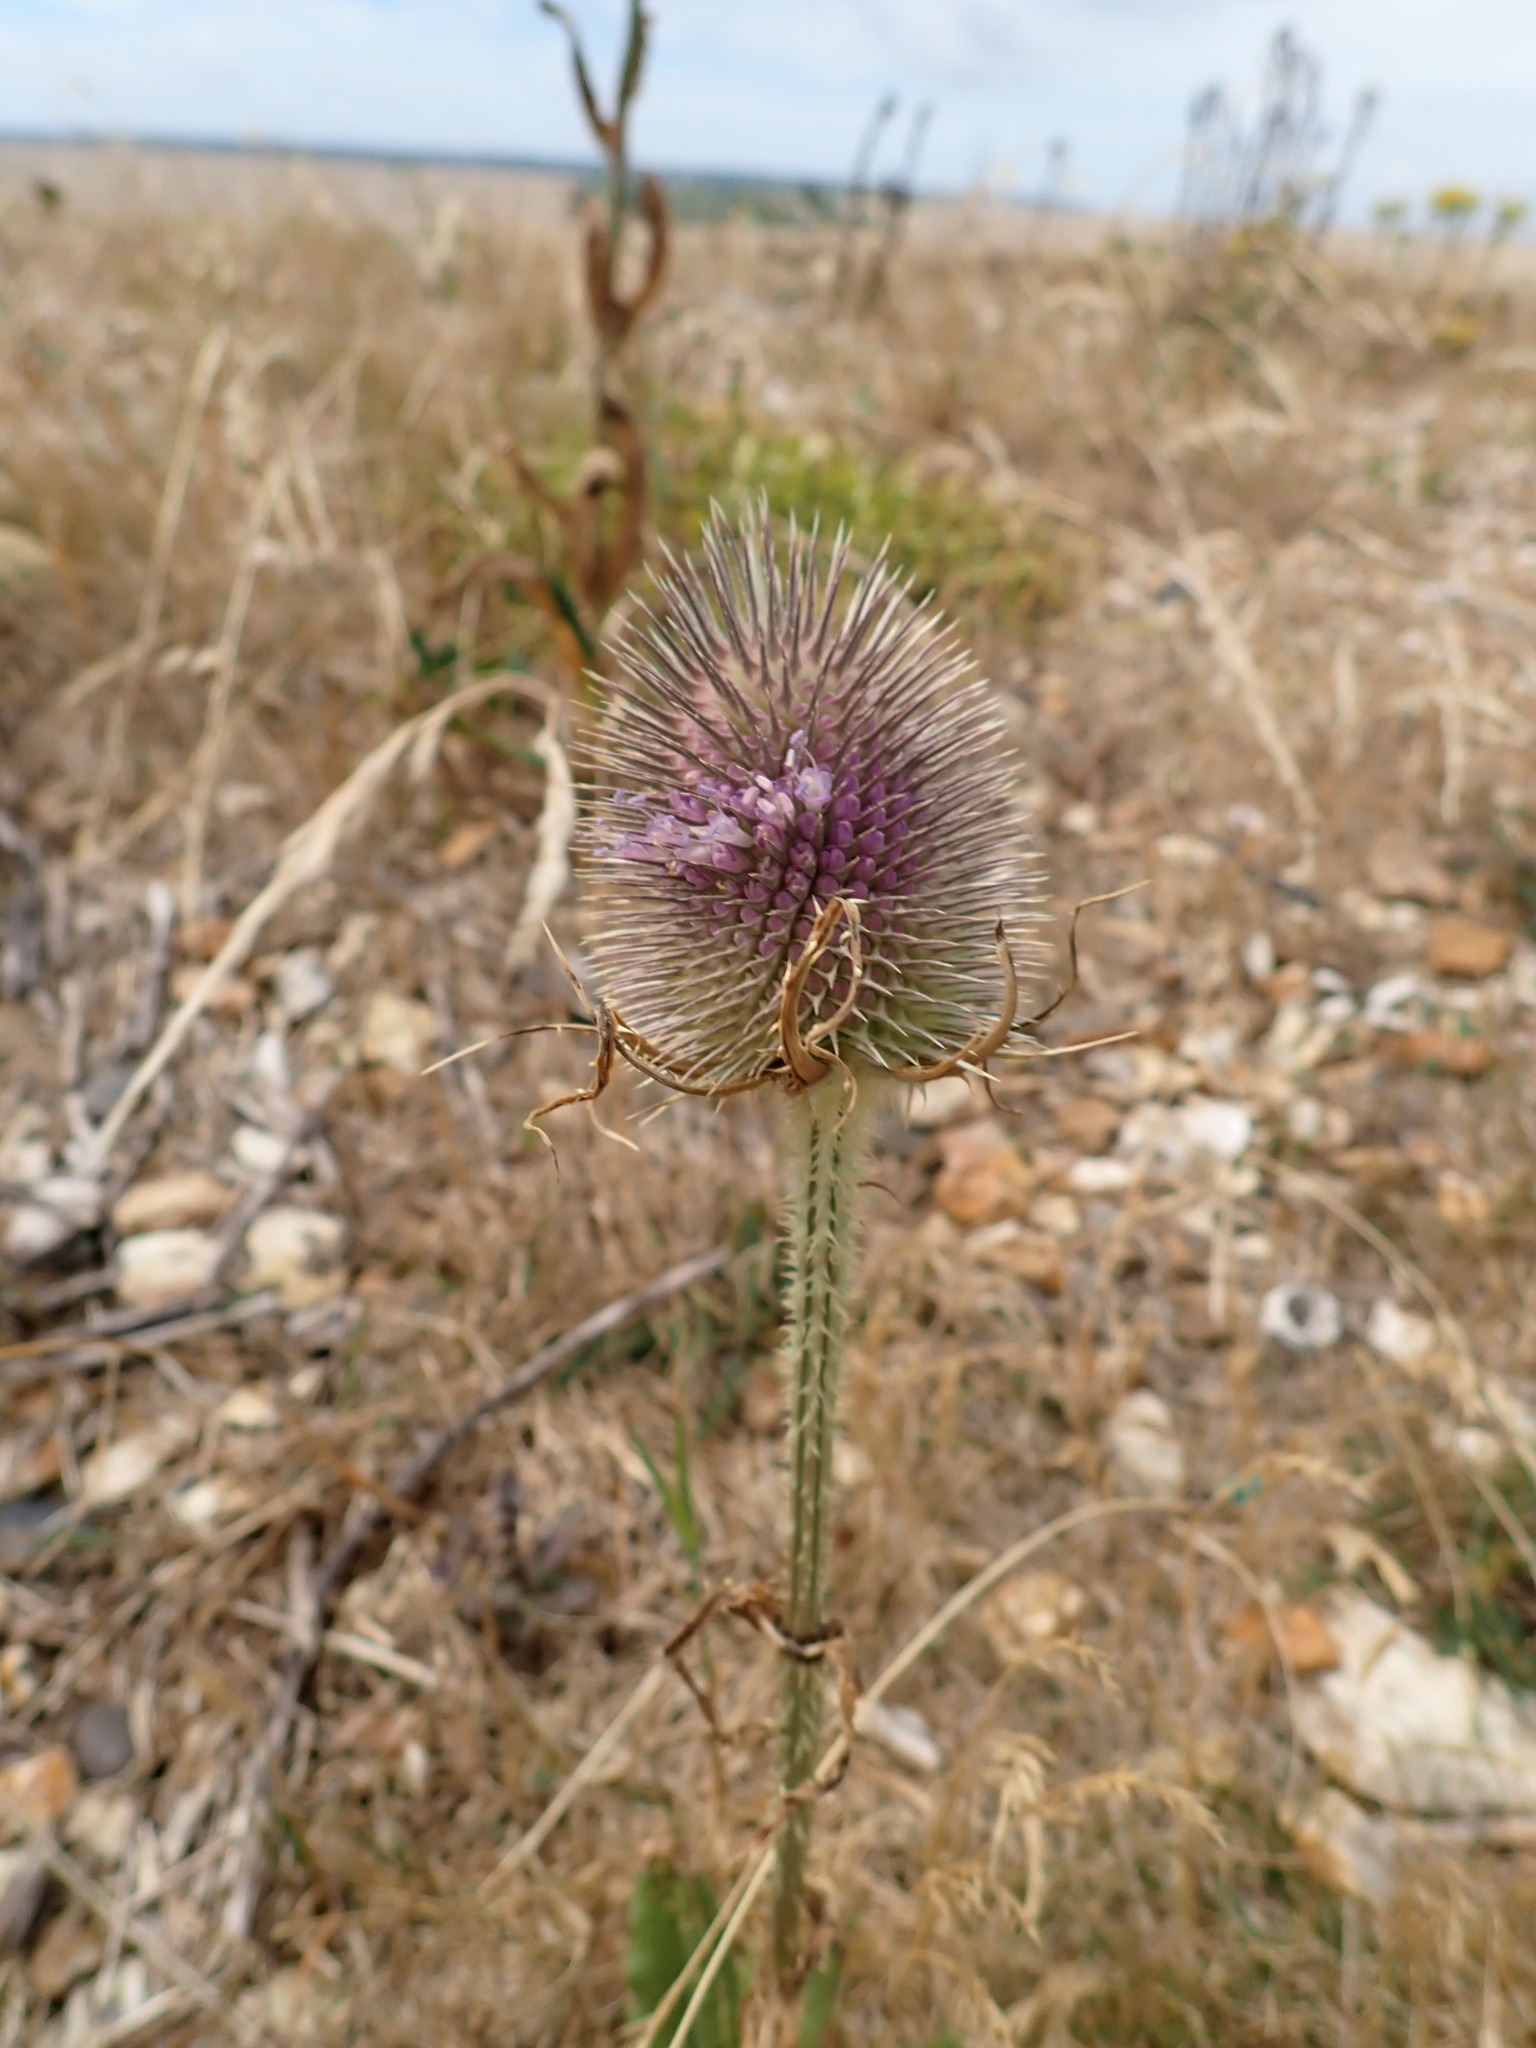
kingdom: Plantae
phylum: Tracheophyta
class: Magnoliopsida
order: Dipsacales
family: Caprifoliaceae
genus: Dipsacus
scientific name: Dipsacus fullonum
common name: Teasel
